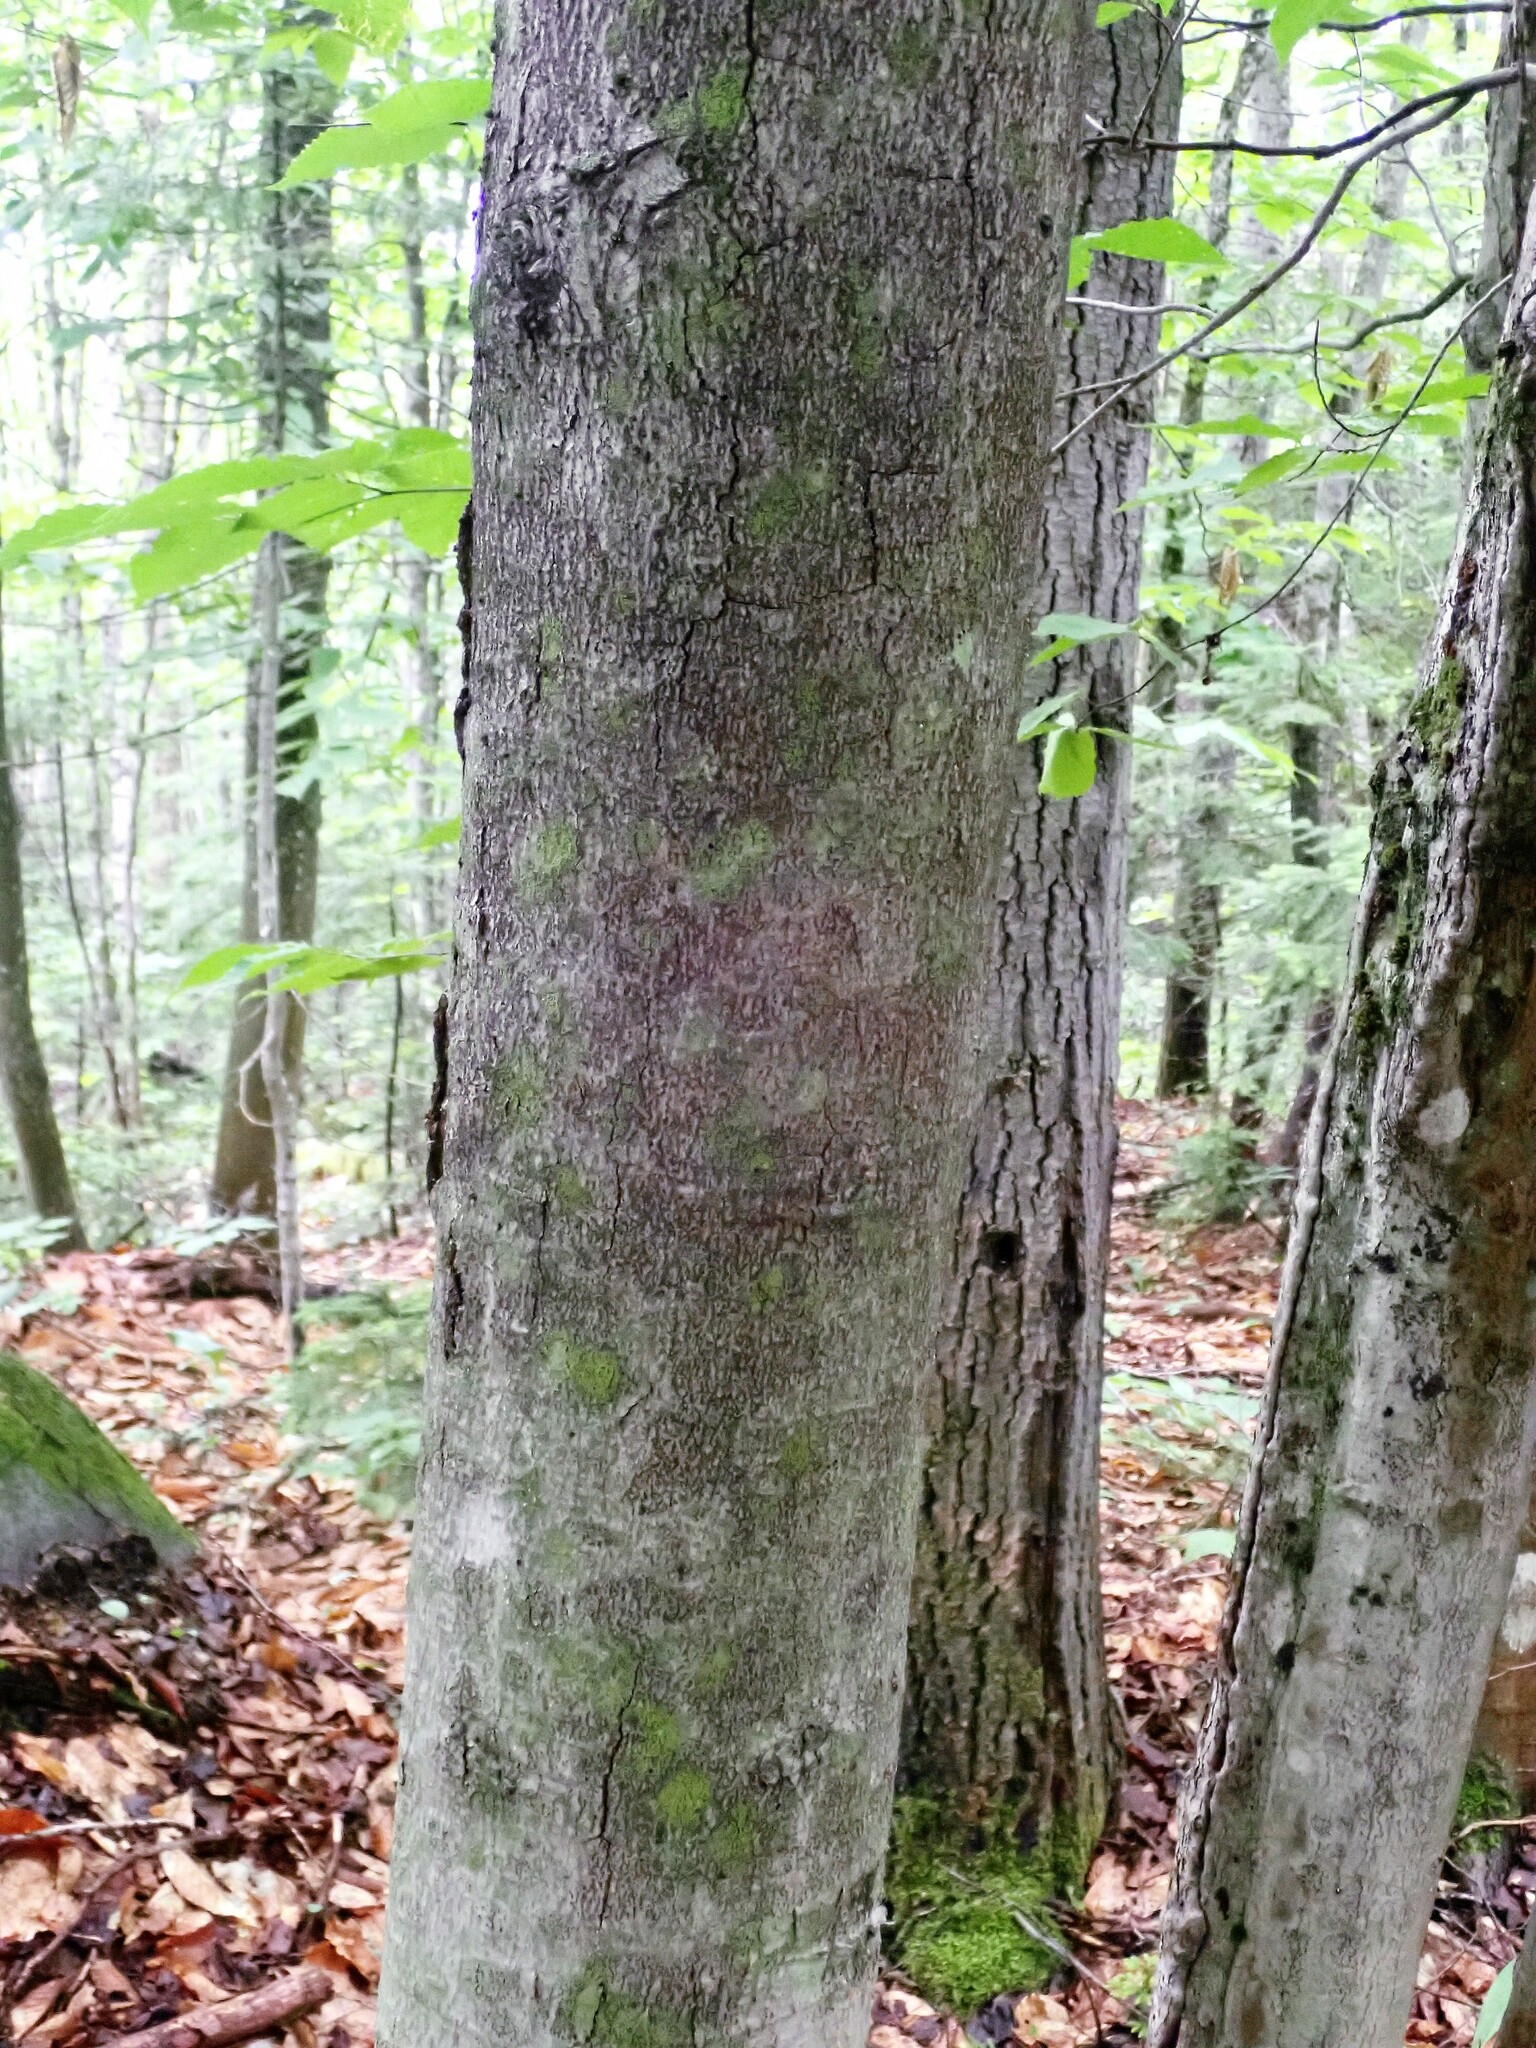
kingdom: Plantae
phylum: Tracheophyta
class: Magnoliopsida
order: Fagales
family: Fagaceae
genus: Fagus
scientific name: Fagus grandifolia
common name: American beech
